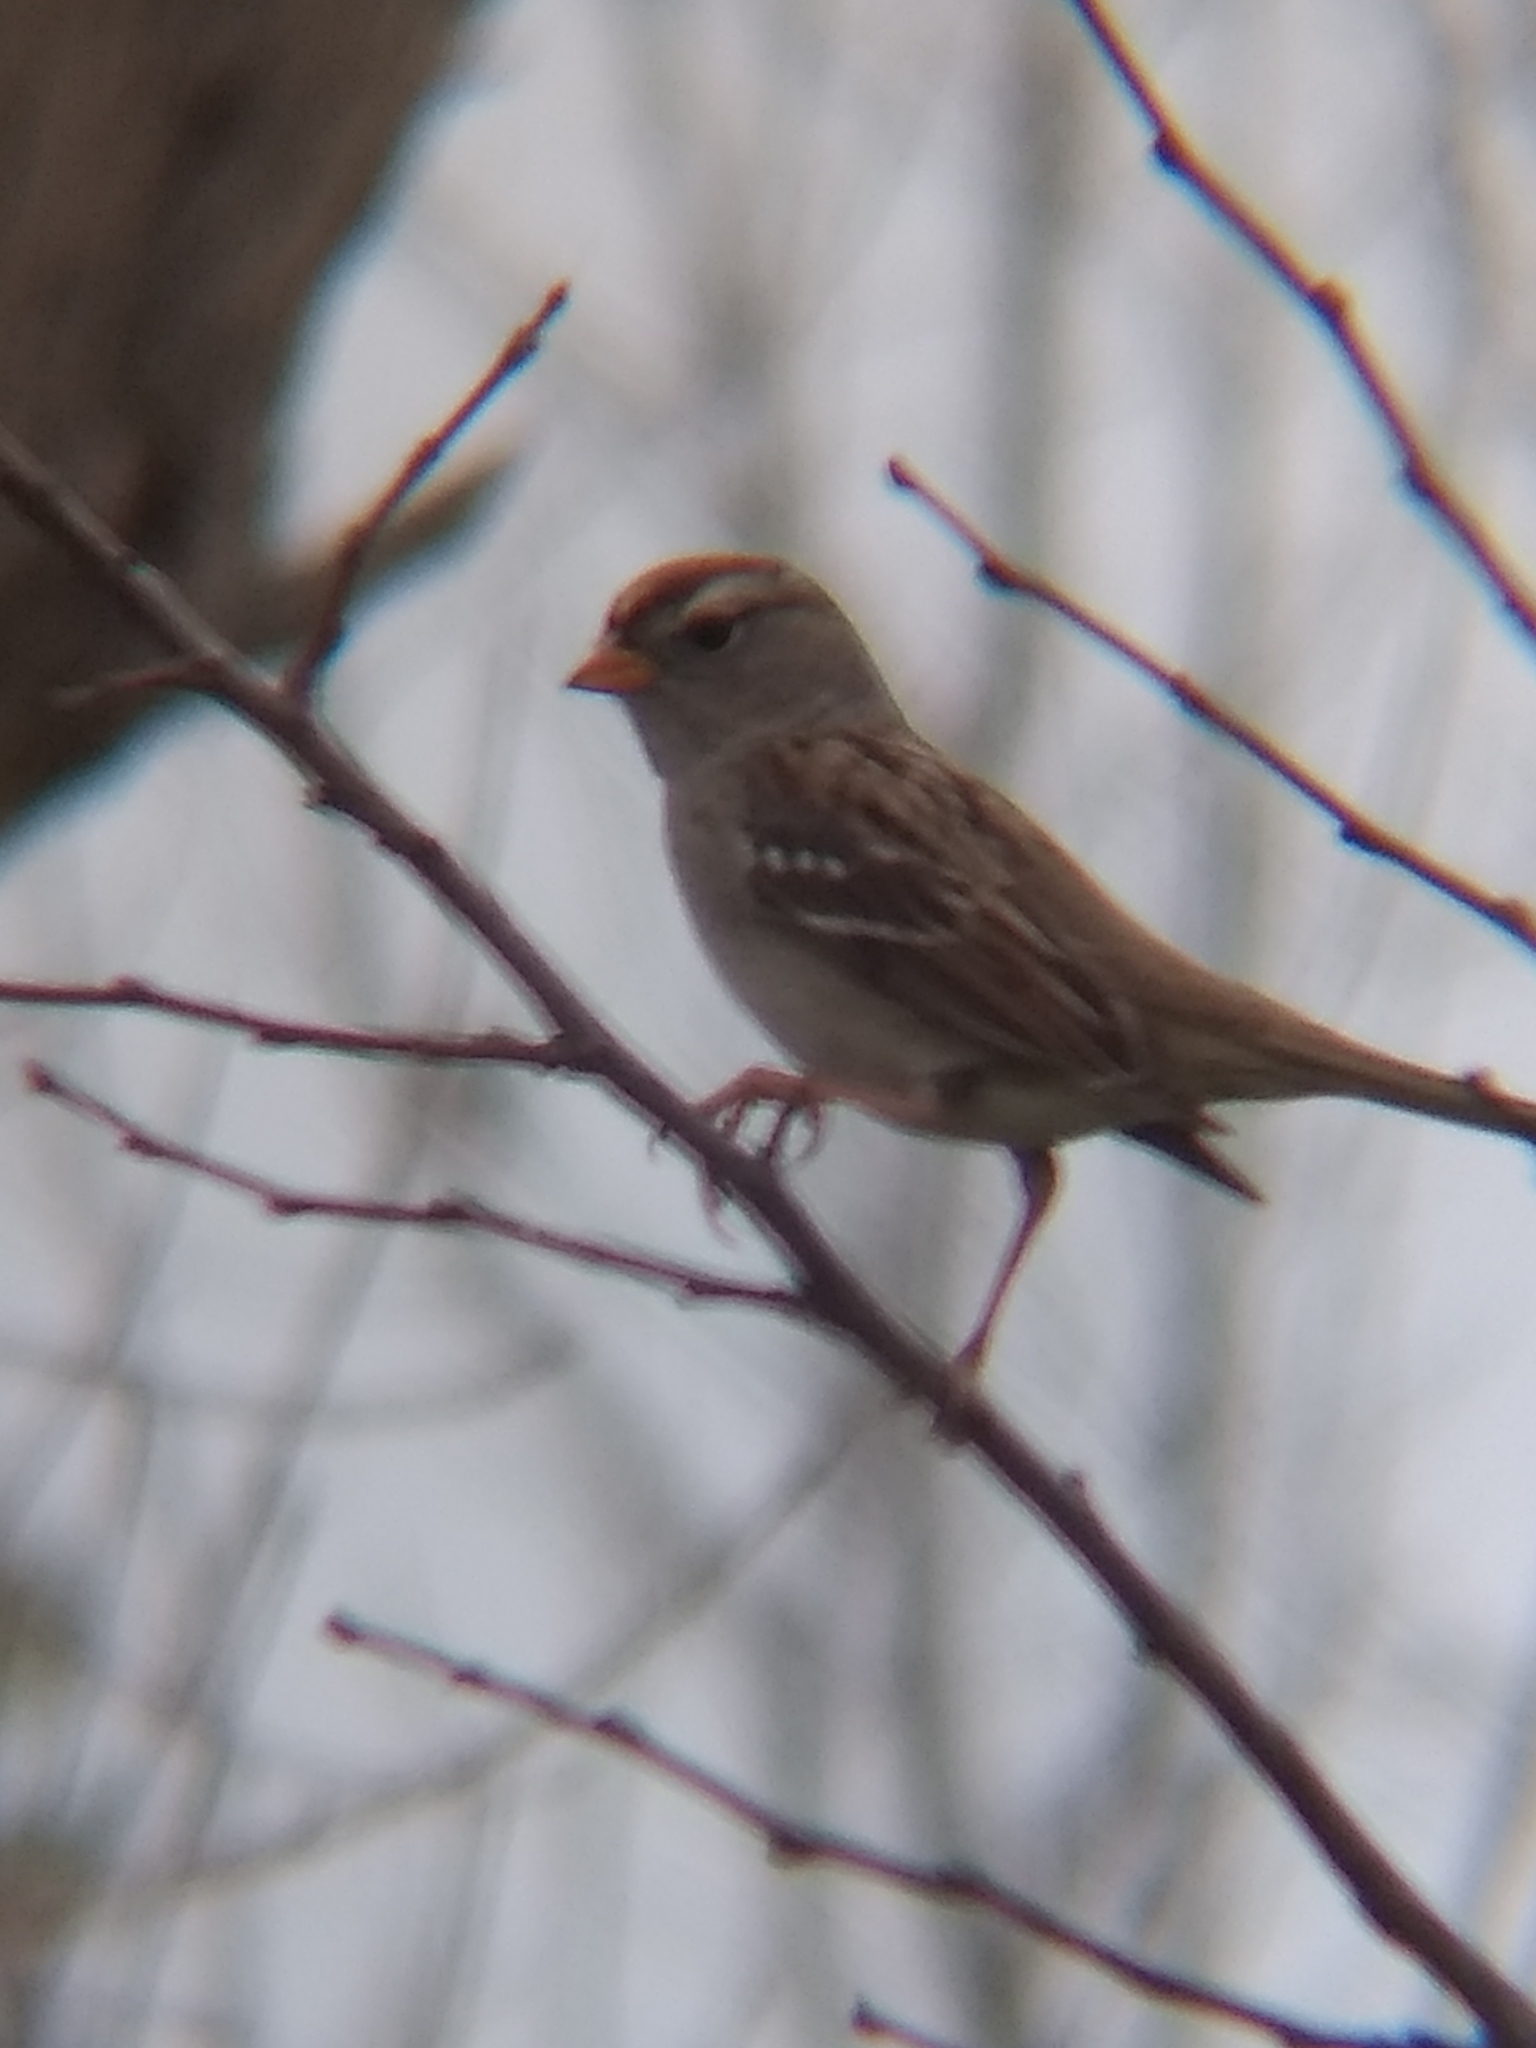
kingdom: Animalia
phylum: Chordata
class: Aves
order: Passeriformes
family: Passerellidae
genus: Zonotrichia
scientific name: Zonotrichia leucophrys
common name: White-crowned sparrow
